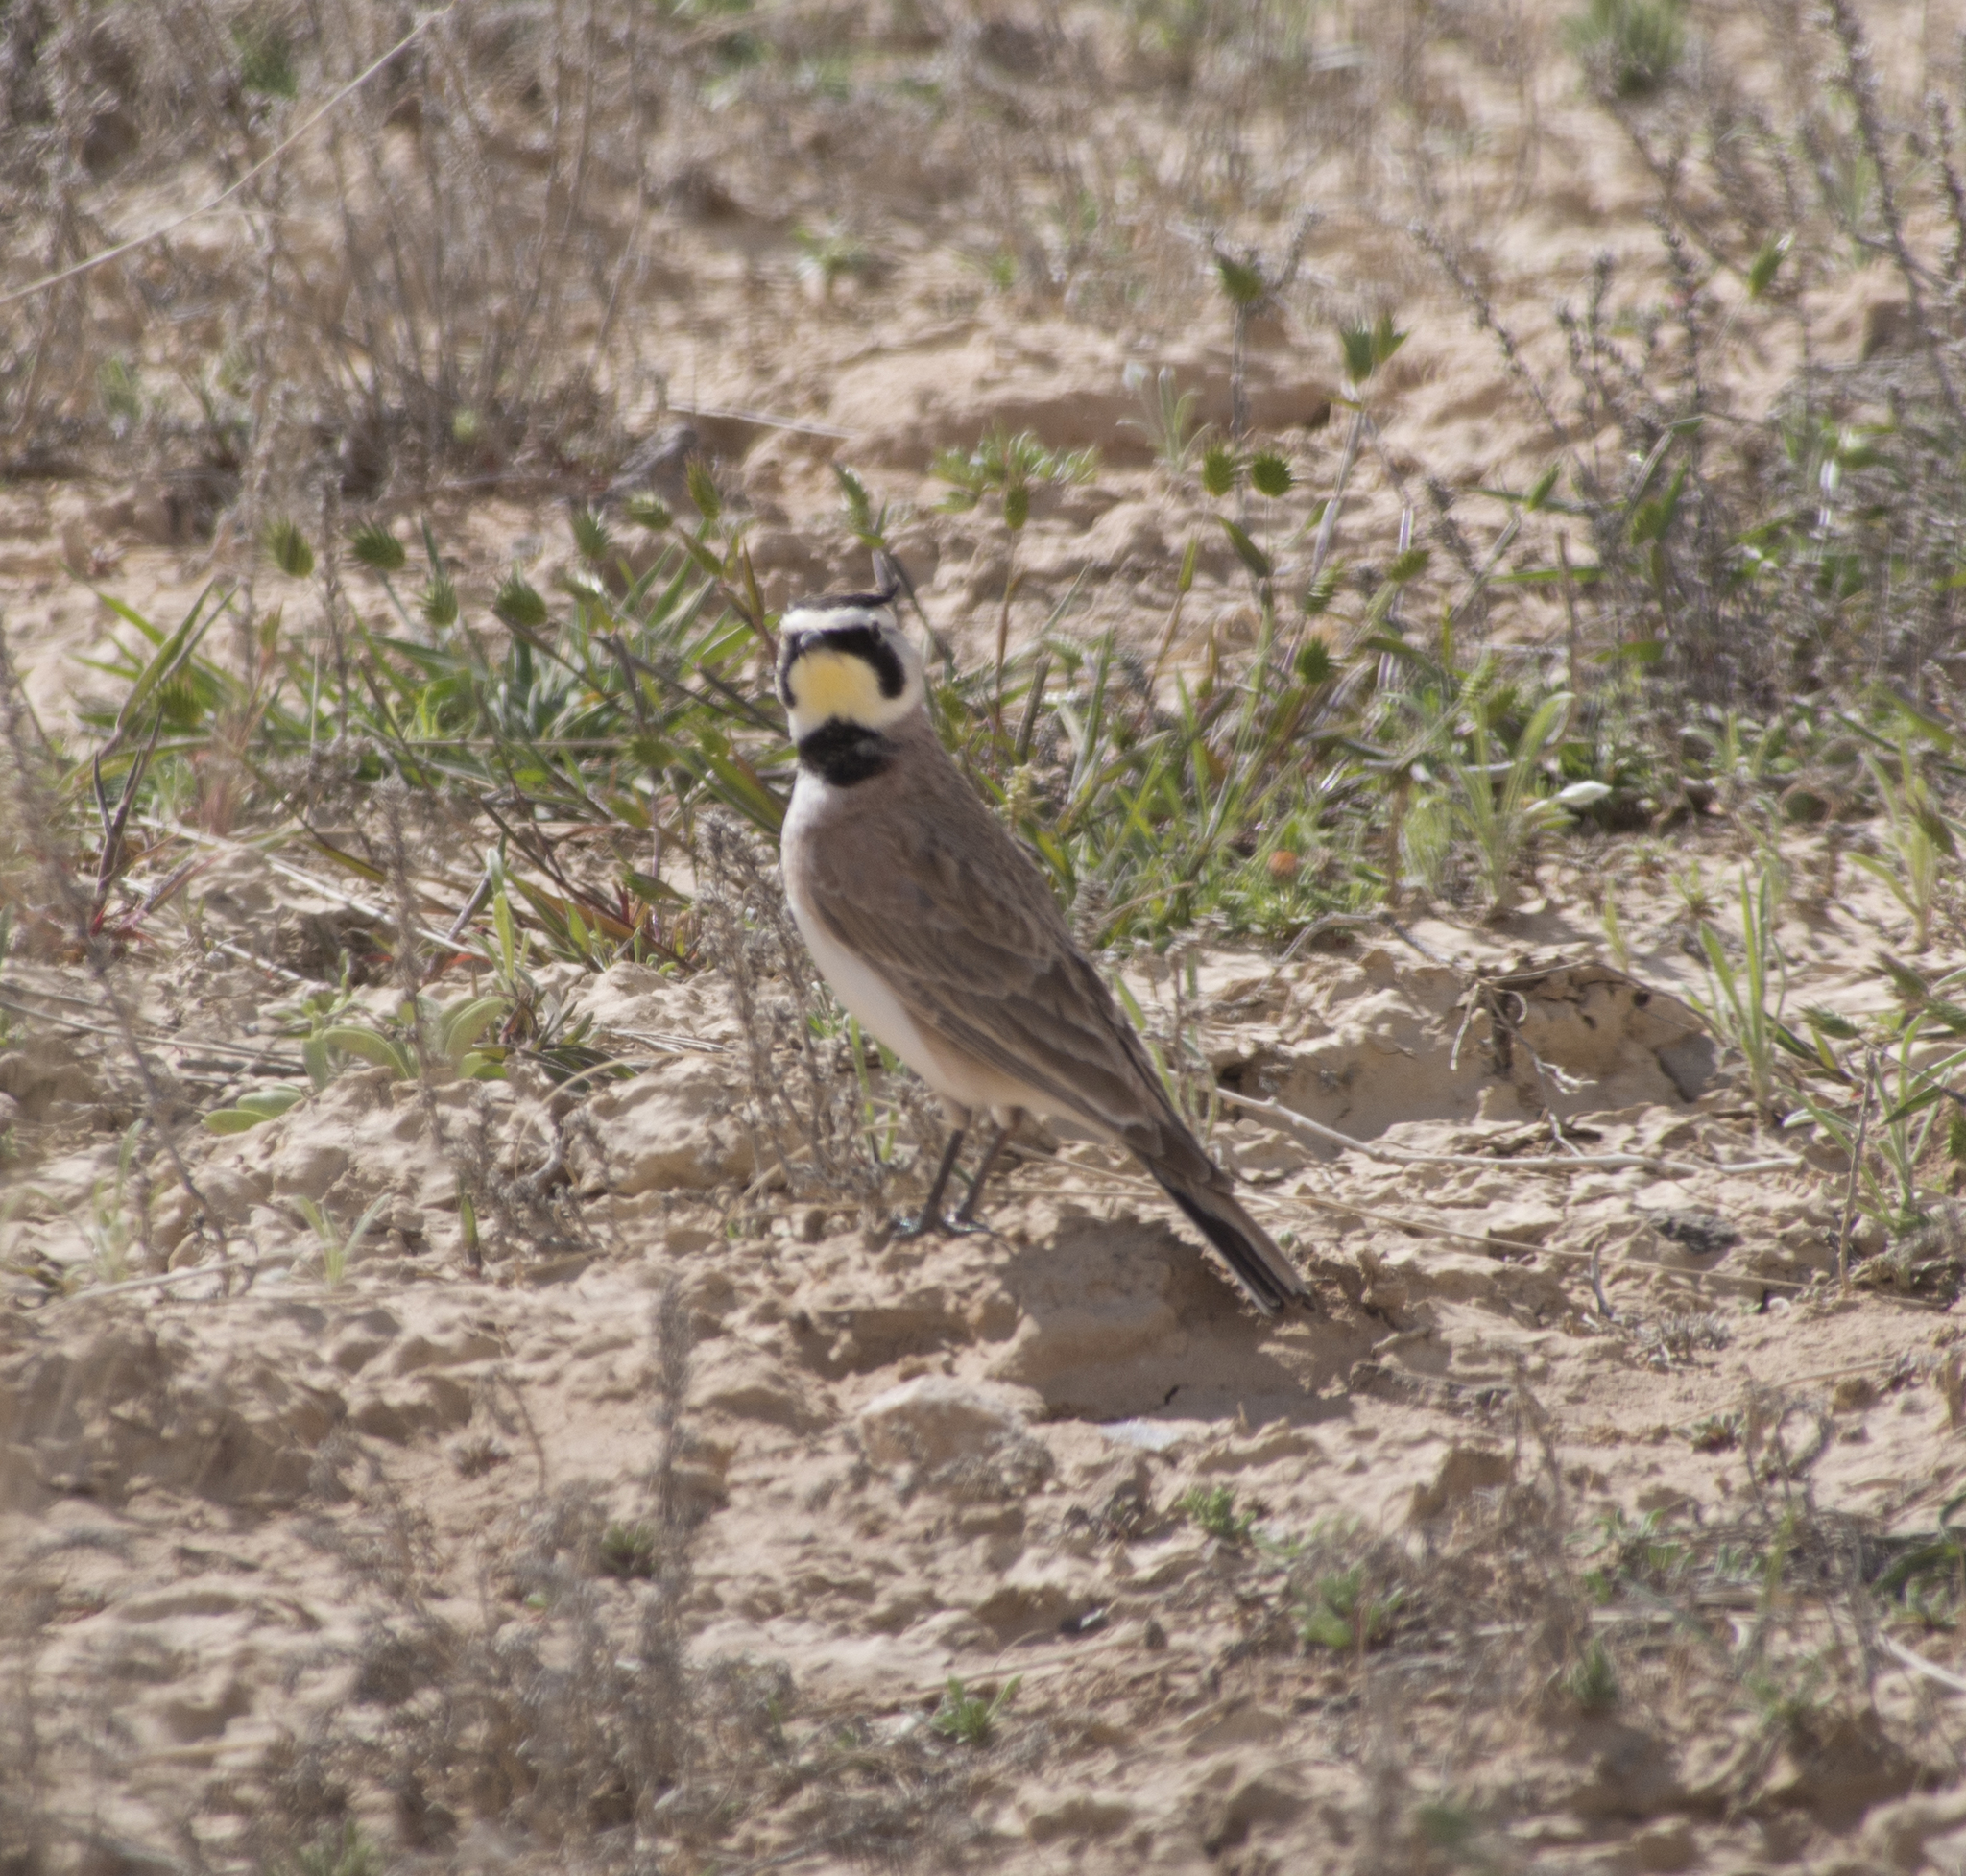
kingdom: Animalia
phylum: Chordata
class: Aves
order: Passeriformes
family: Alaudidae
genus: Eremophila
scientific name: Eremophila alpestris
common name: Horned lark
